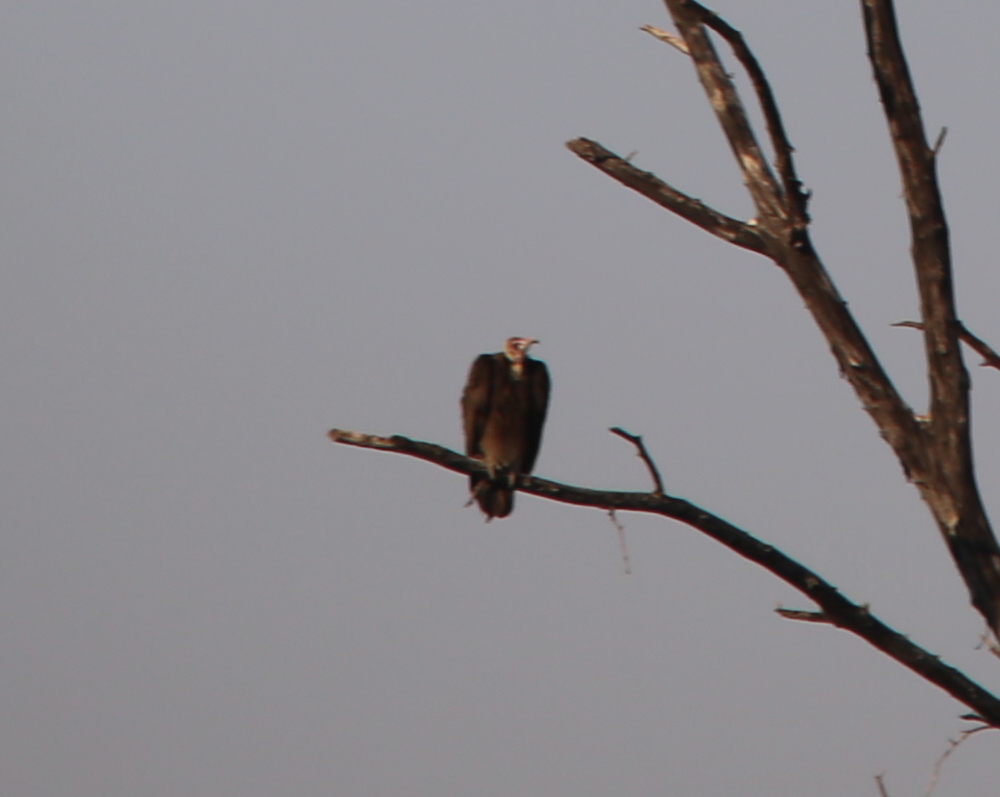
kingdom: Animalia
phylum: Chordata
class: Aves
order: Accipitriformes
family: Accipitridae
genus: Trigonoceps
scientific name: Trigonoceps occipitalis
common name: White-headed vulture
